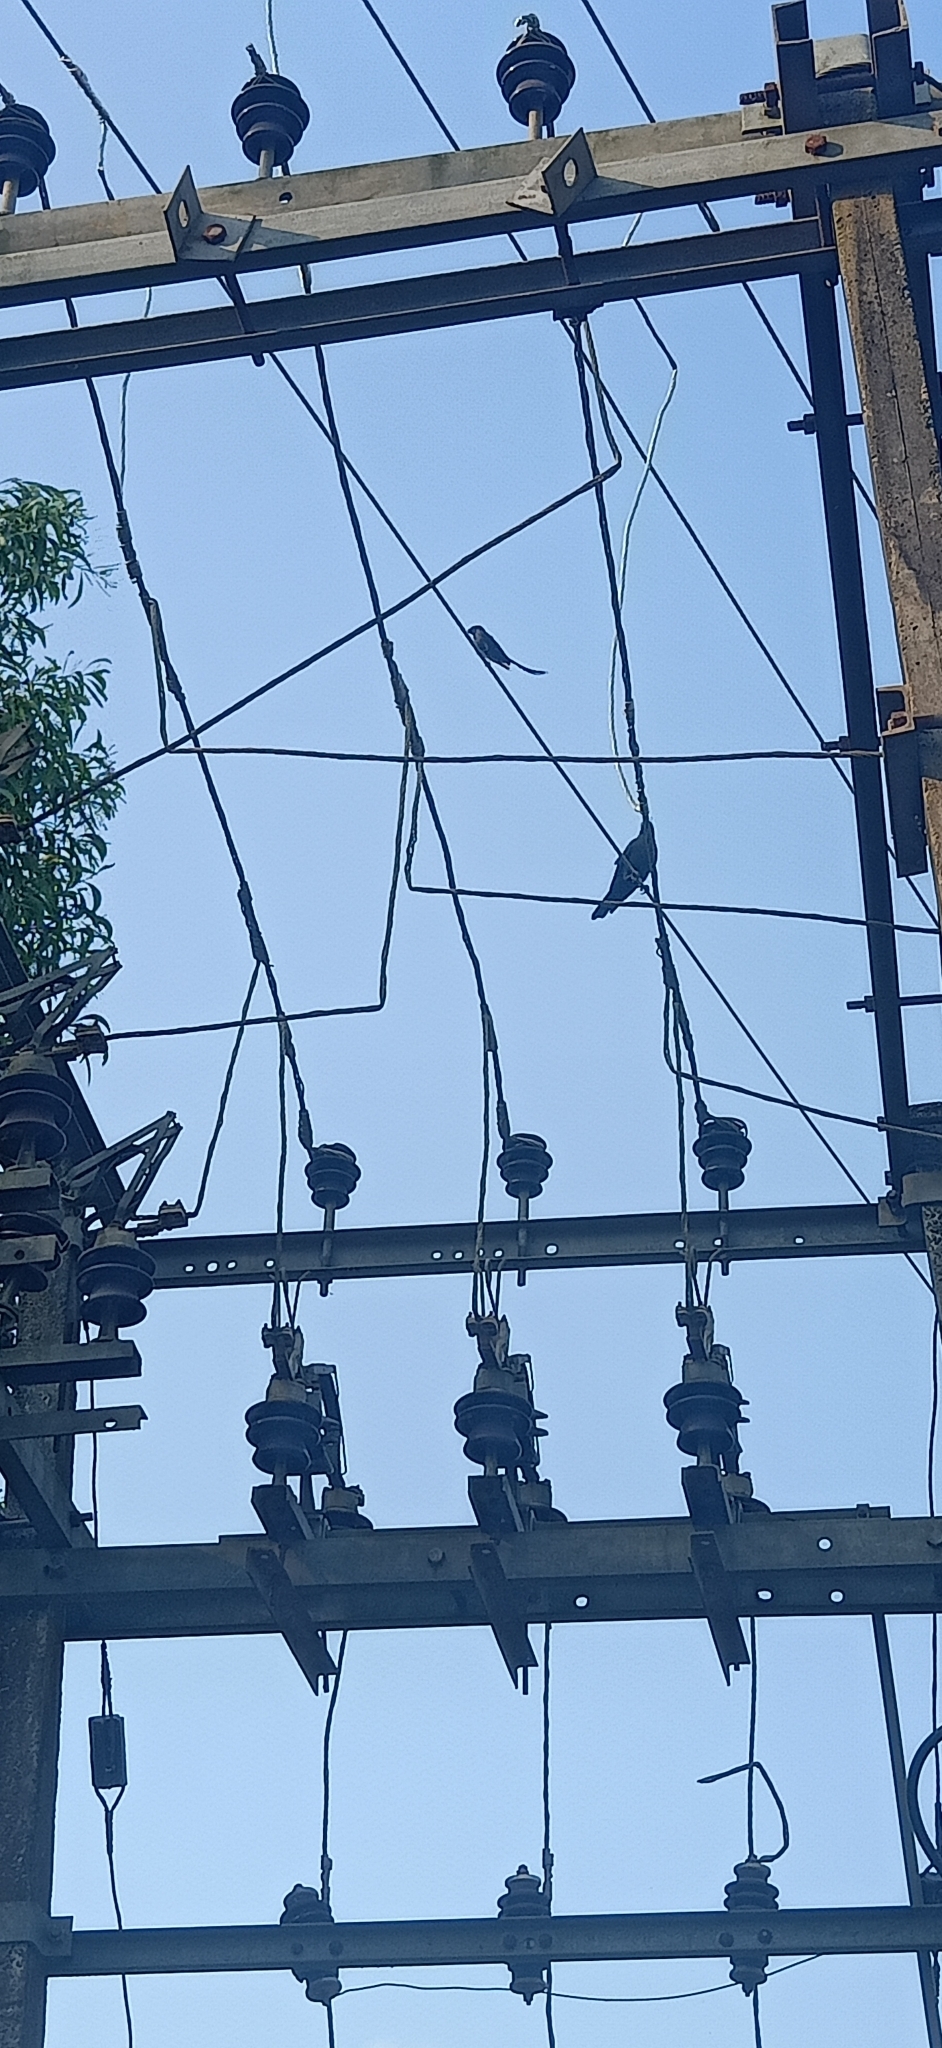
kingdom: Animalia
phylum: Chordata
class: Aves
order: Passeriformes
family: Dicruridae
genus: Dicrurus
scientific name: Dicrurus macrocercus
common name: Black drongo
